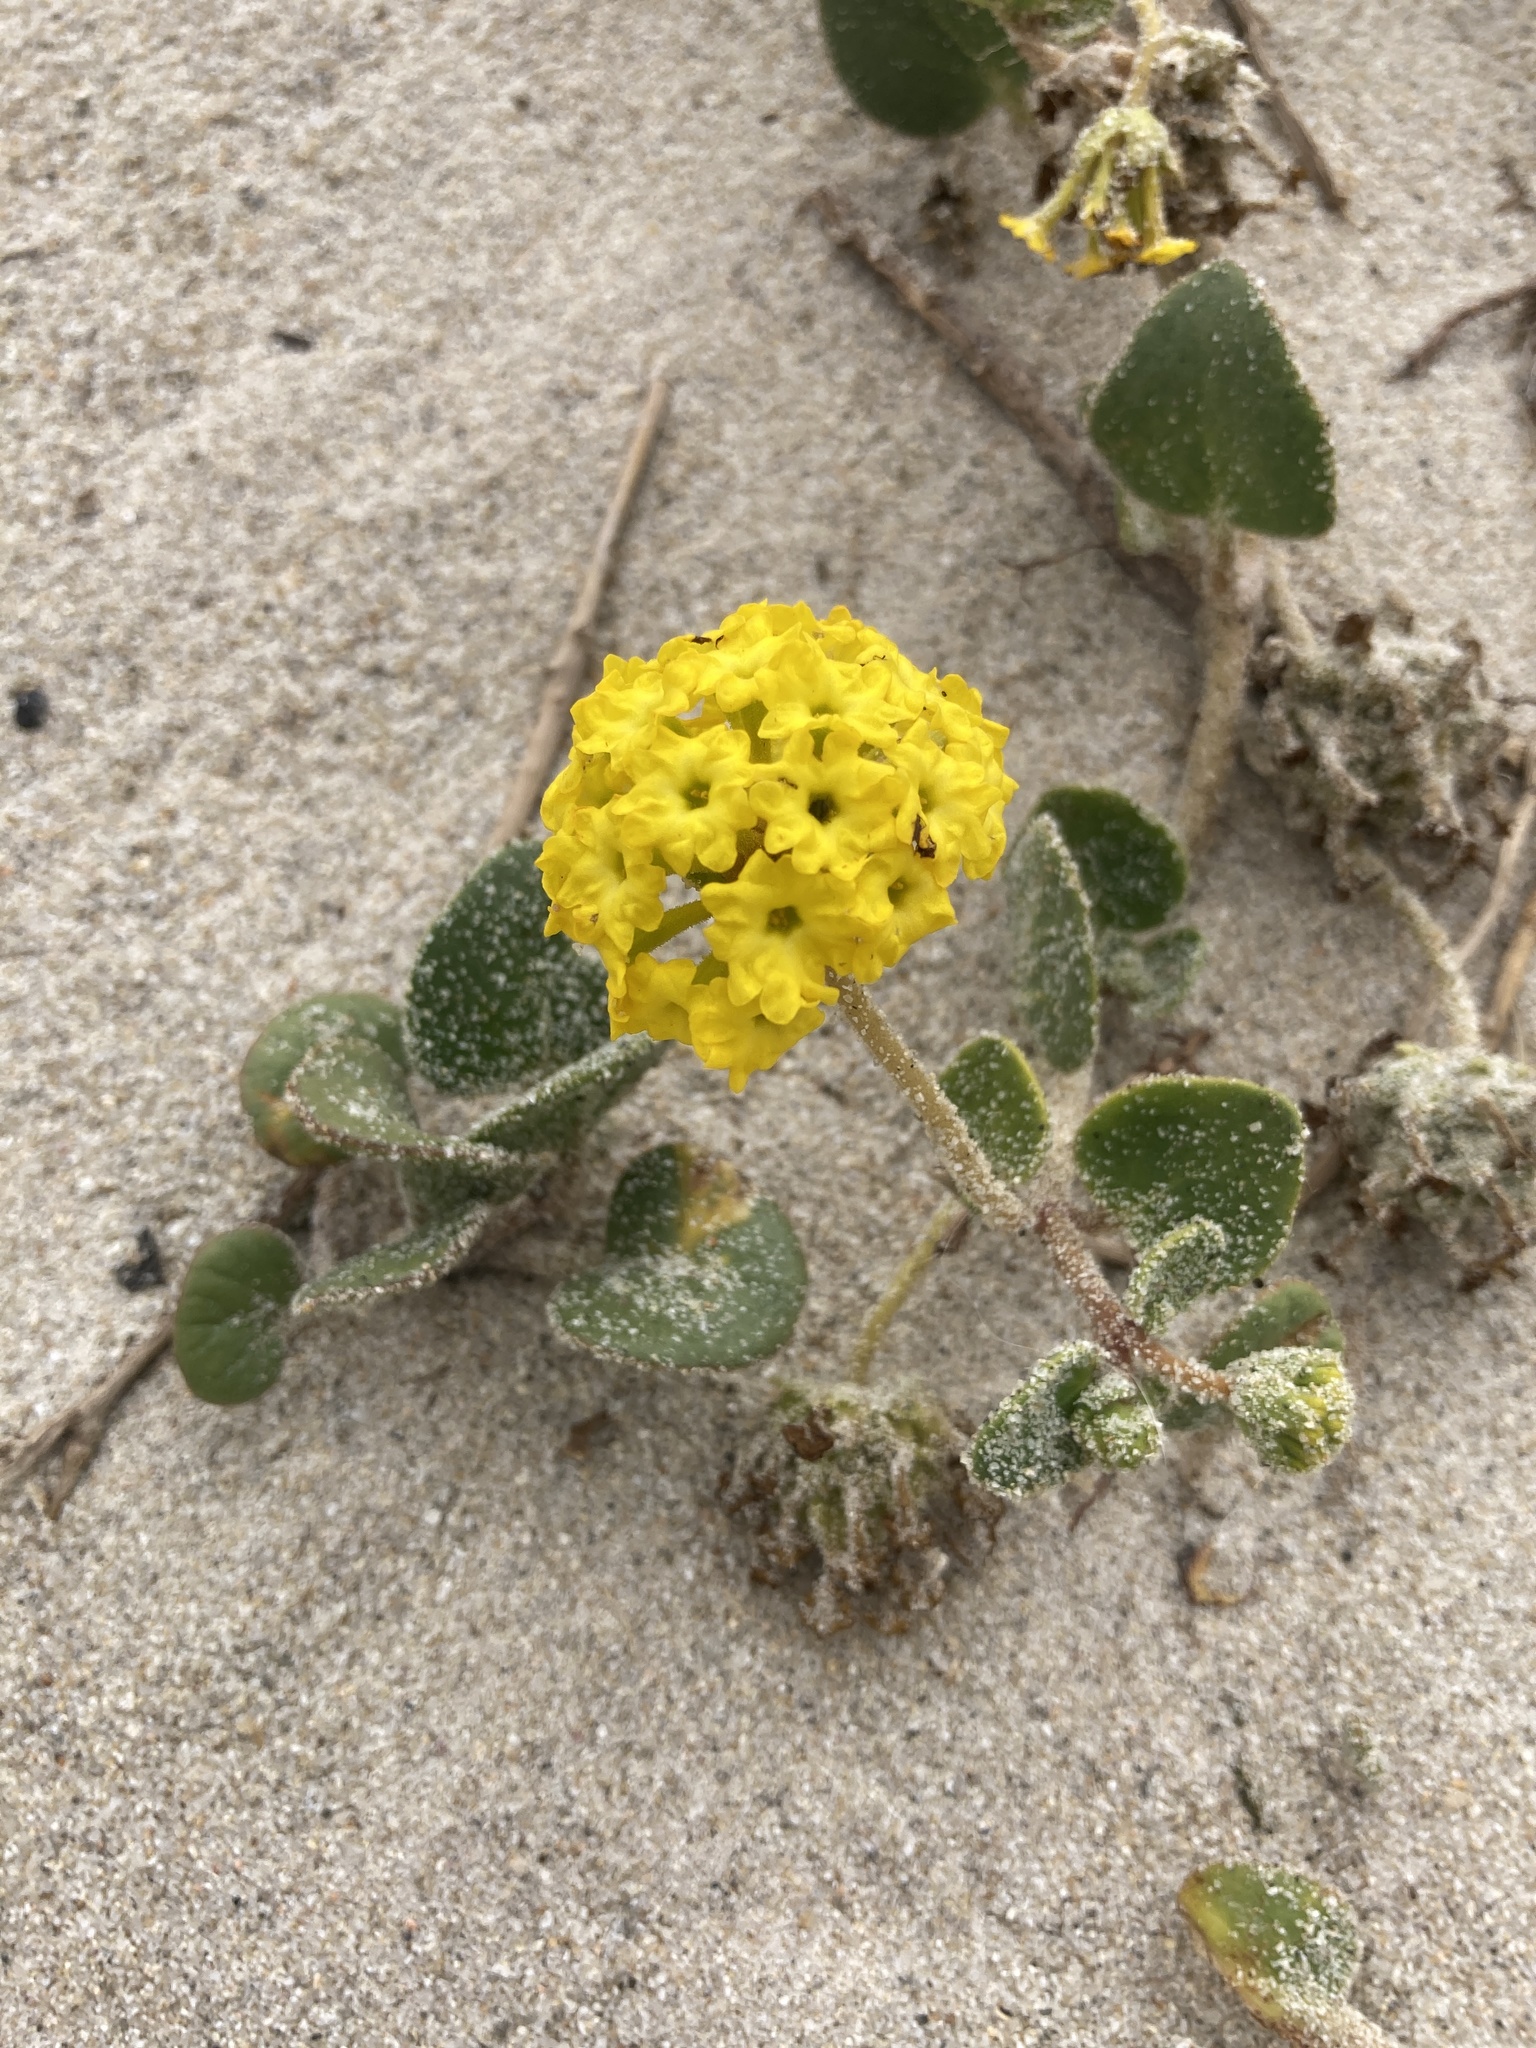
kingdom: Plantae
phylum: Tracheophyta
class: Magnoliopsida
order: Caryophyllales
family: Nyctaginaceae
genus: Abronia
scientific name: Abronia latifolia
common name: Yellow sand-verbena
